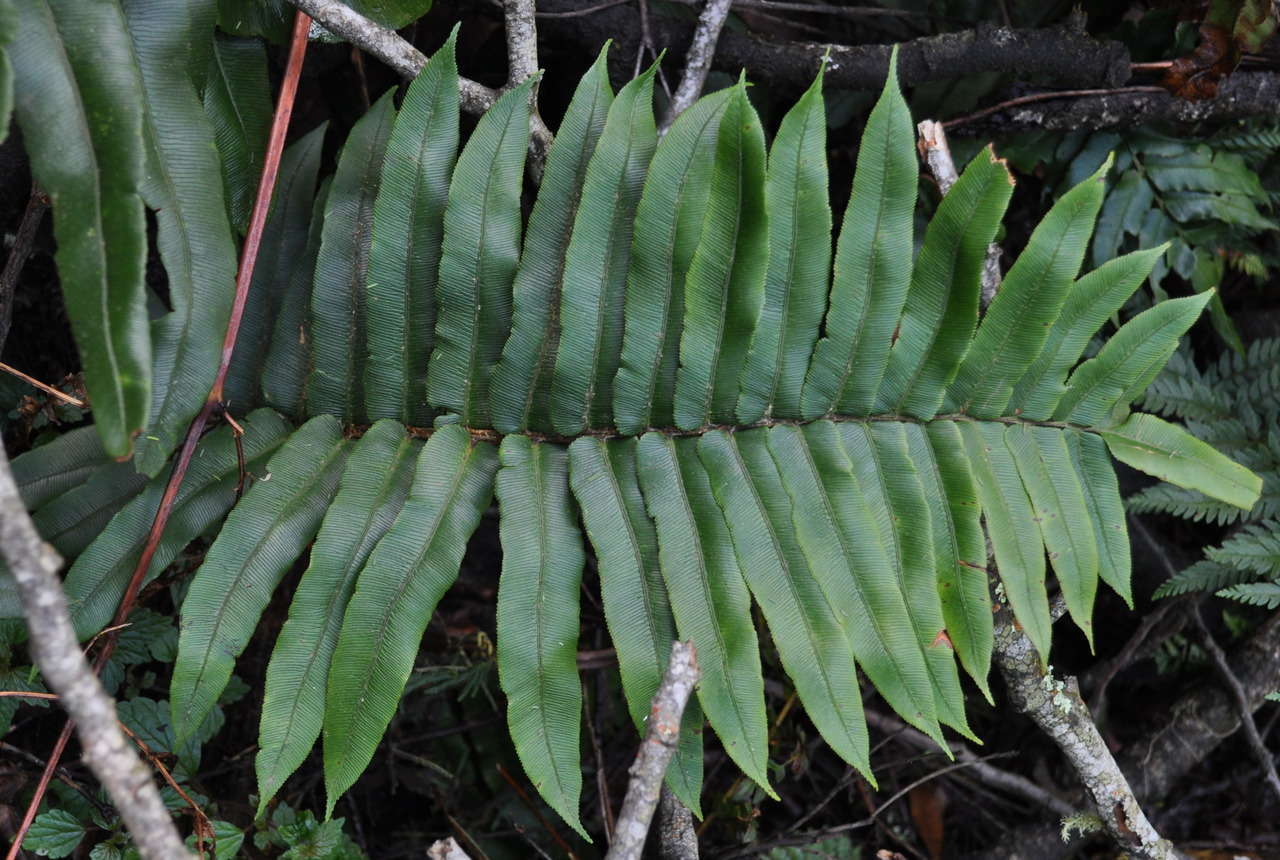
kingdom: Plantae
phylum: Tracheophyta
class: Polypodiopsida
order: Polypodiales
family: Blechnaceae
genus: Parablechnum
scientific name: Parablechnum wattsii
